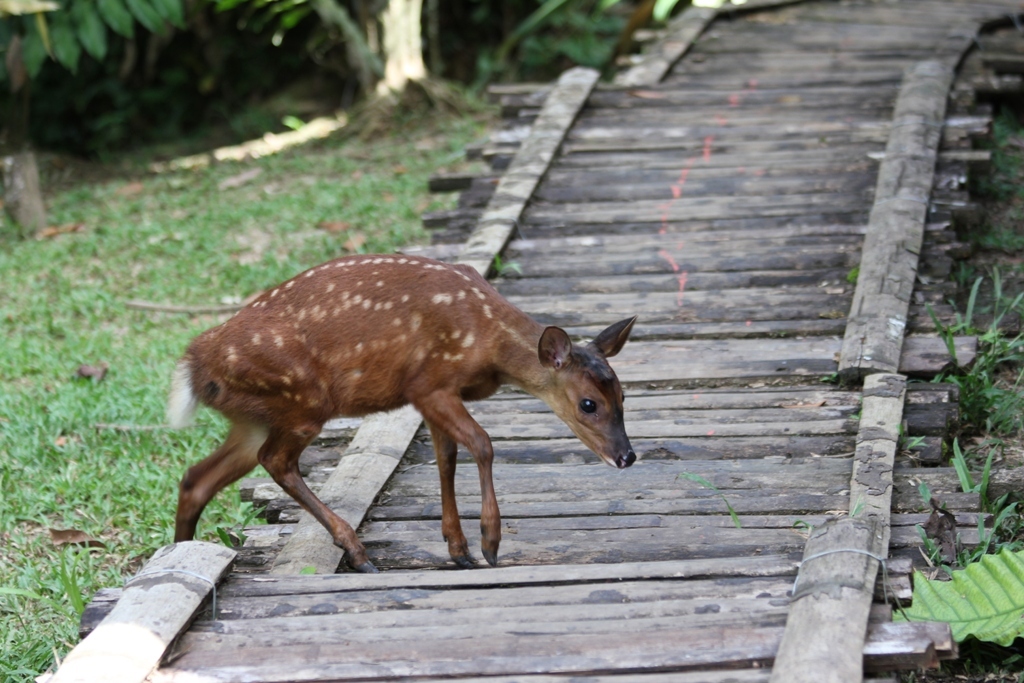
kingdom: Animalia
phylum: Chordata
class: Mammalia
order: Artiodactyla
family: Cervidae
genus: Mazama
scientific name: Mazama americana
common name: Red brocket
